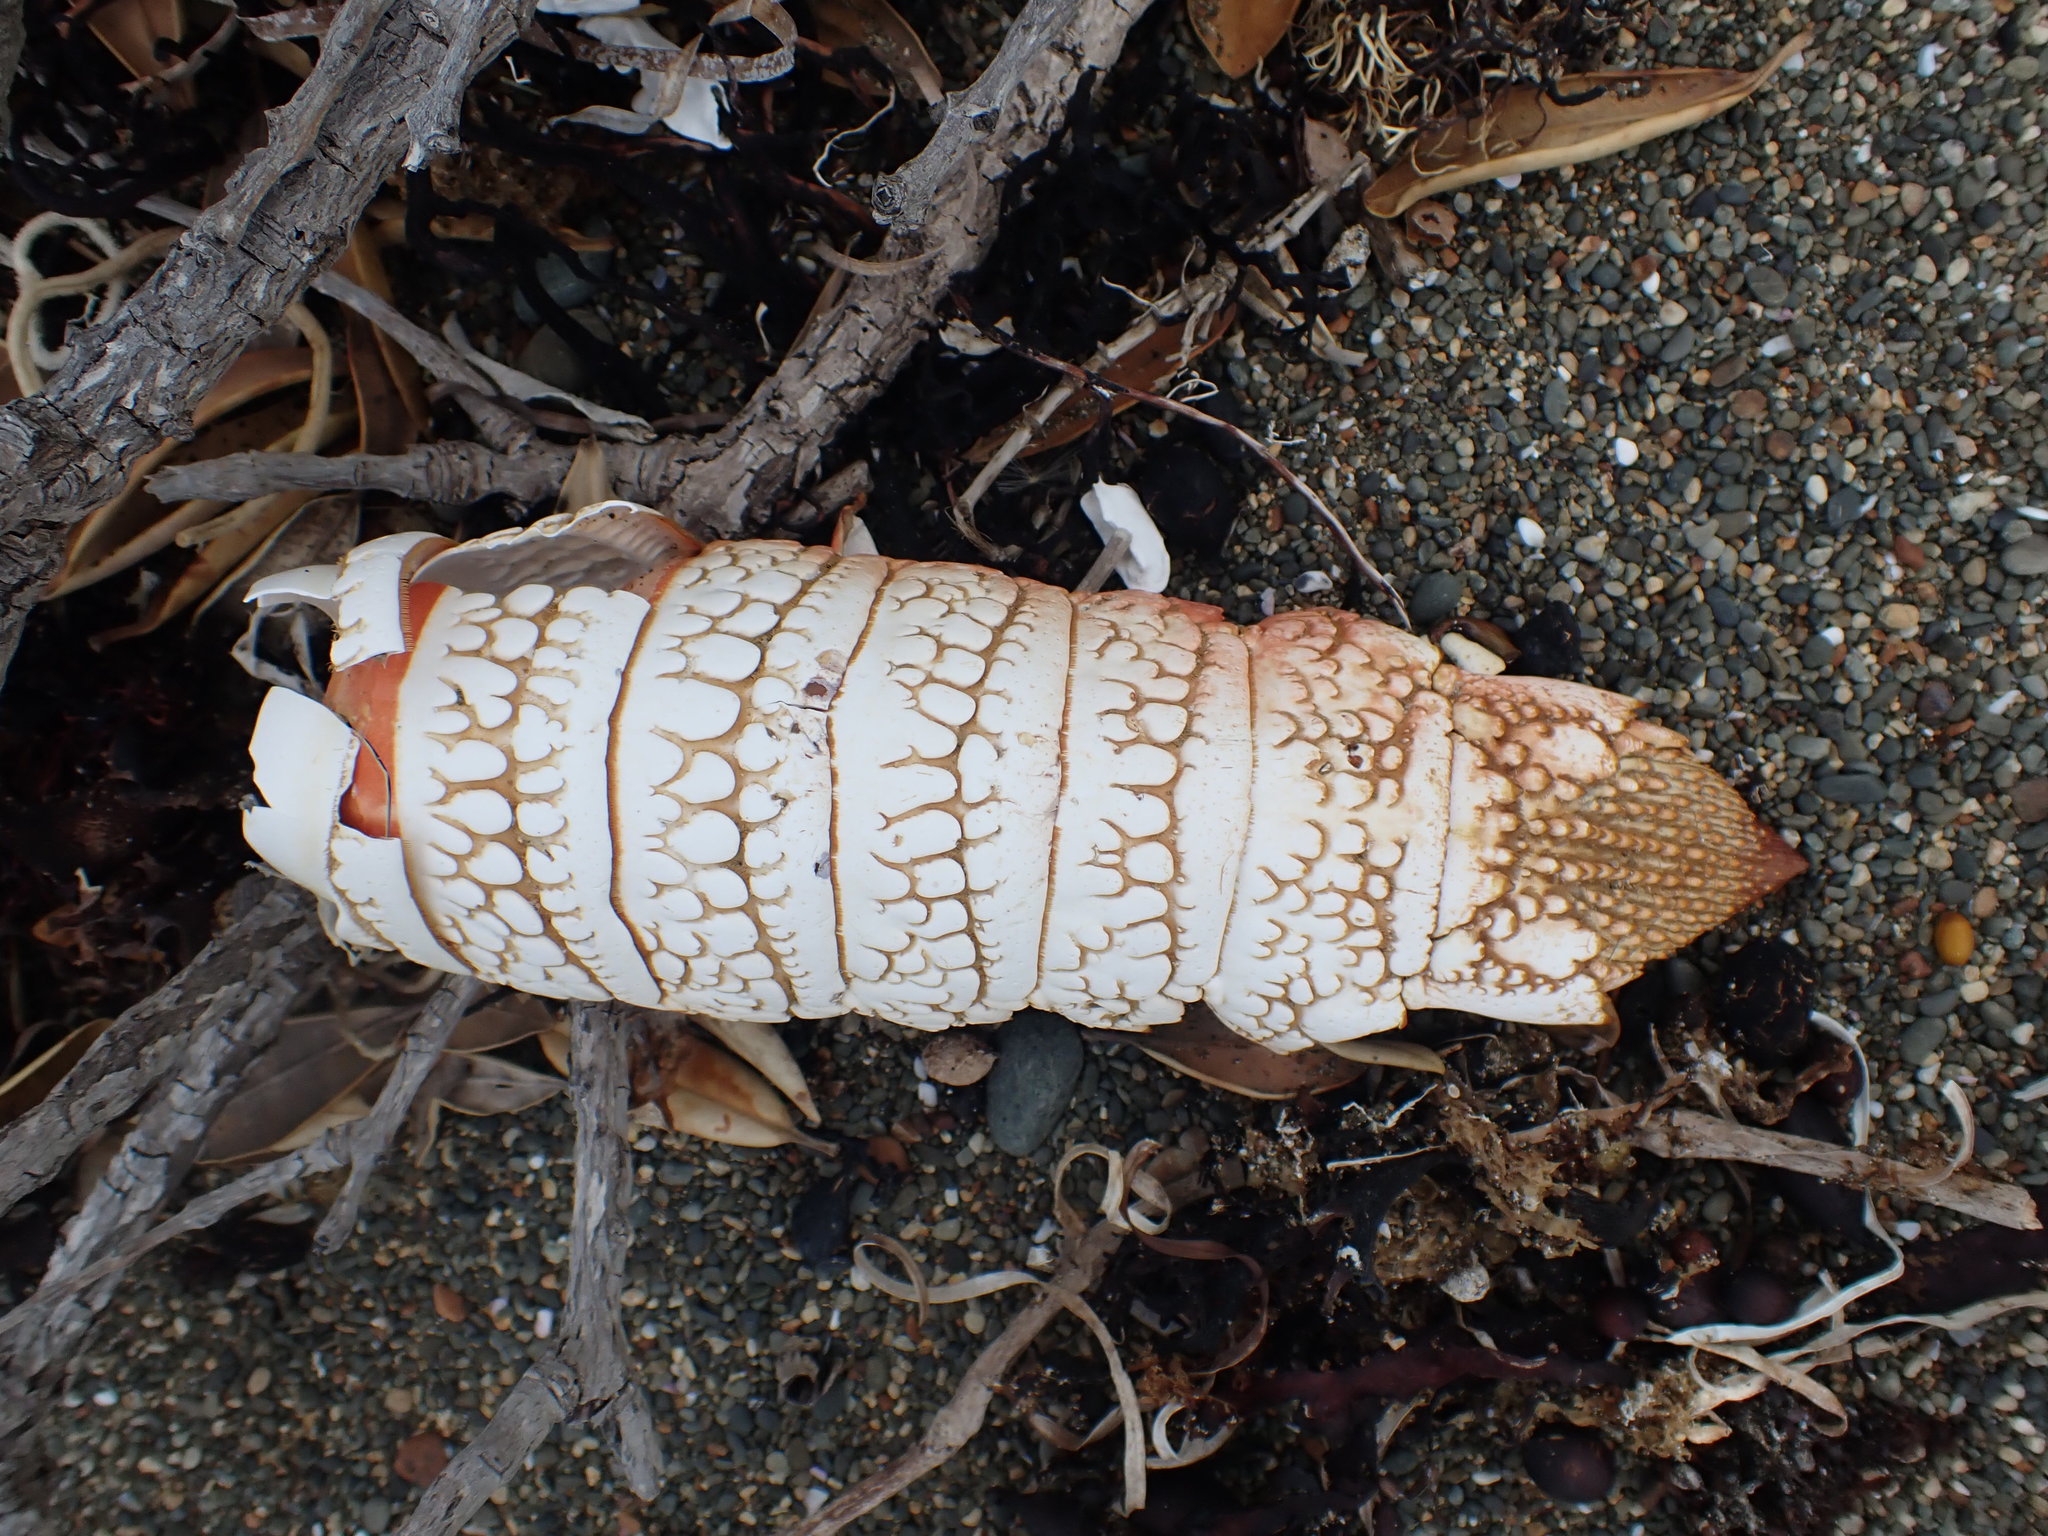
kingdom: Animalia
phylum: Arthropoda
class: Malacostraca
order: Decapoda
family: Palinuridae
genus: Jasus
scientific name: Jasus edwardsii
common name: Red rock lobster
